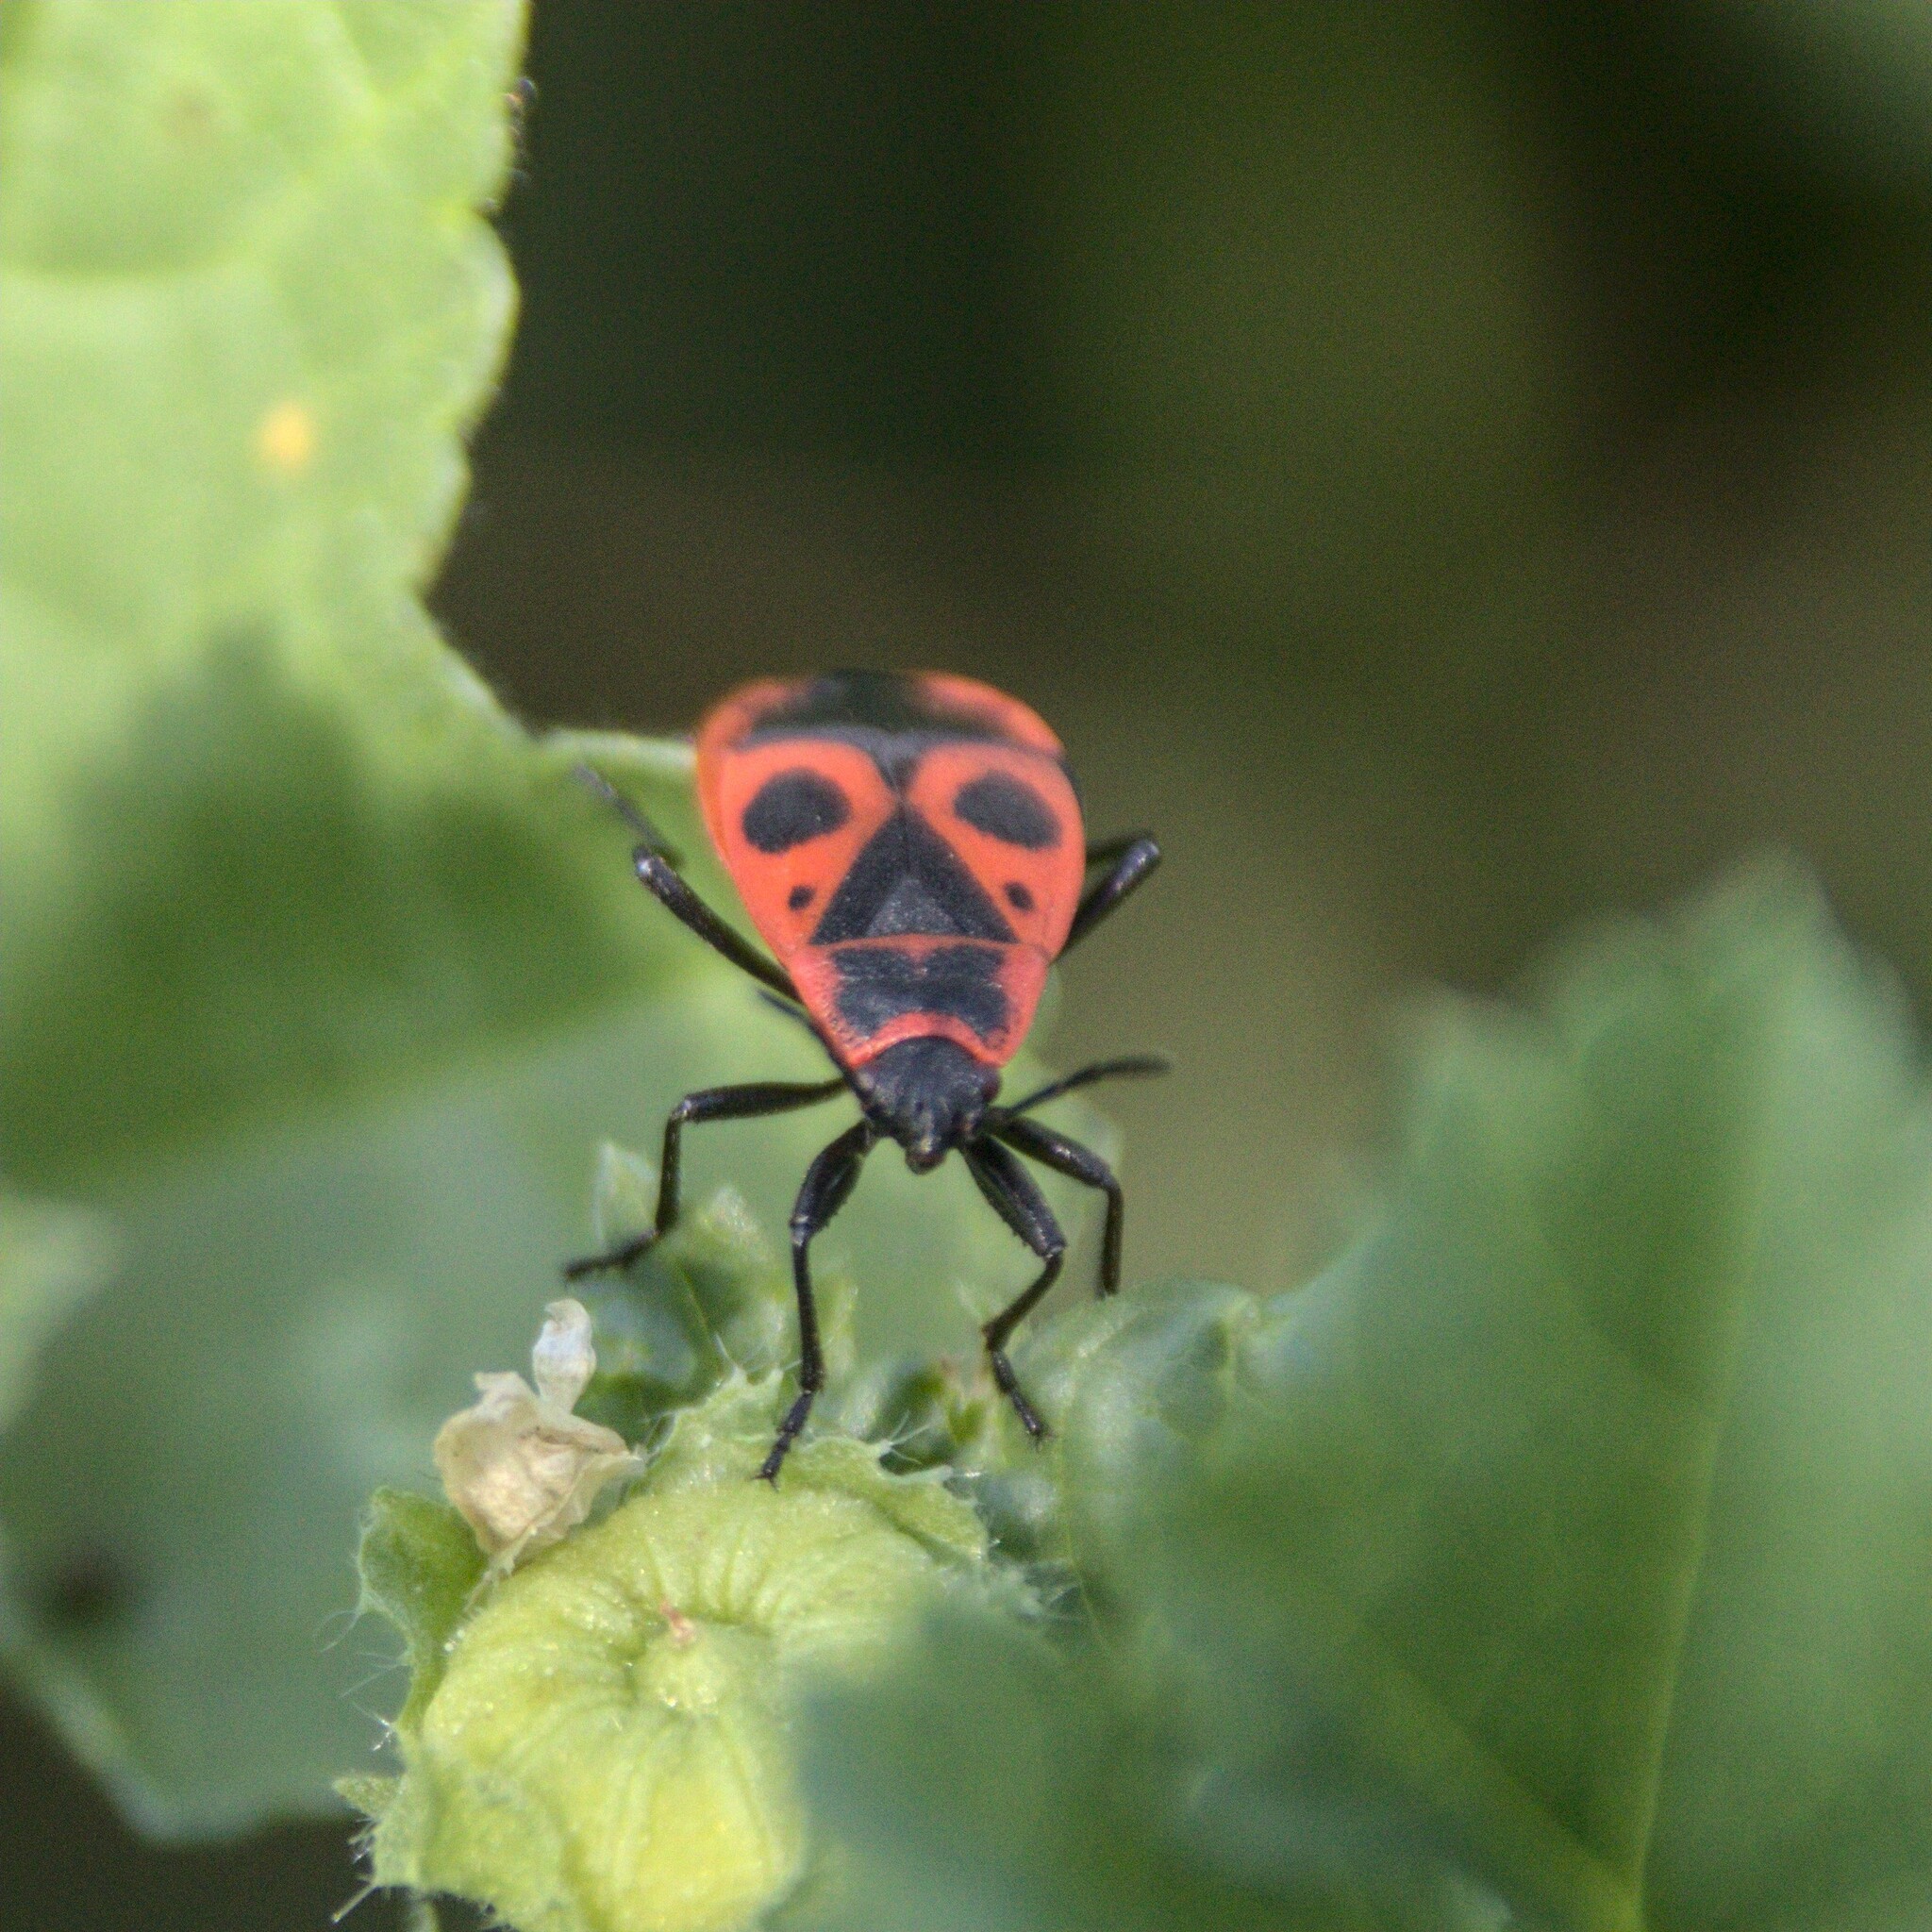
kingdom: Animalia
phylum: Arthropoda
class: Insecta
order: Hemiptera
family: Pyrrhocoridae
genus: Pyrrhocoris
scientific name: Pyrrhocoris apterus
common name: Firebug
